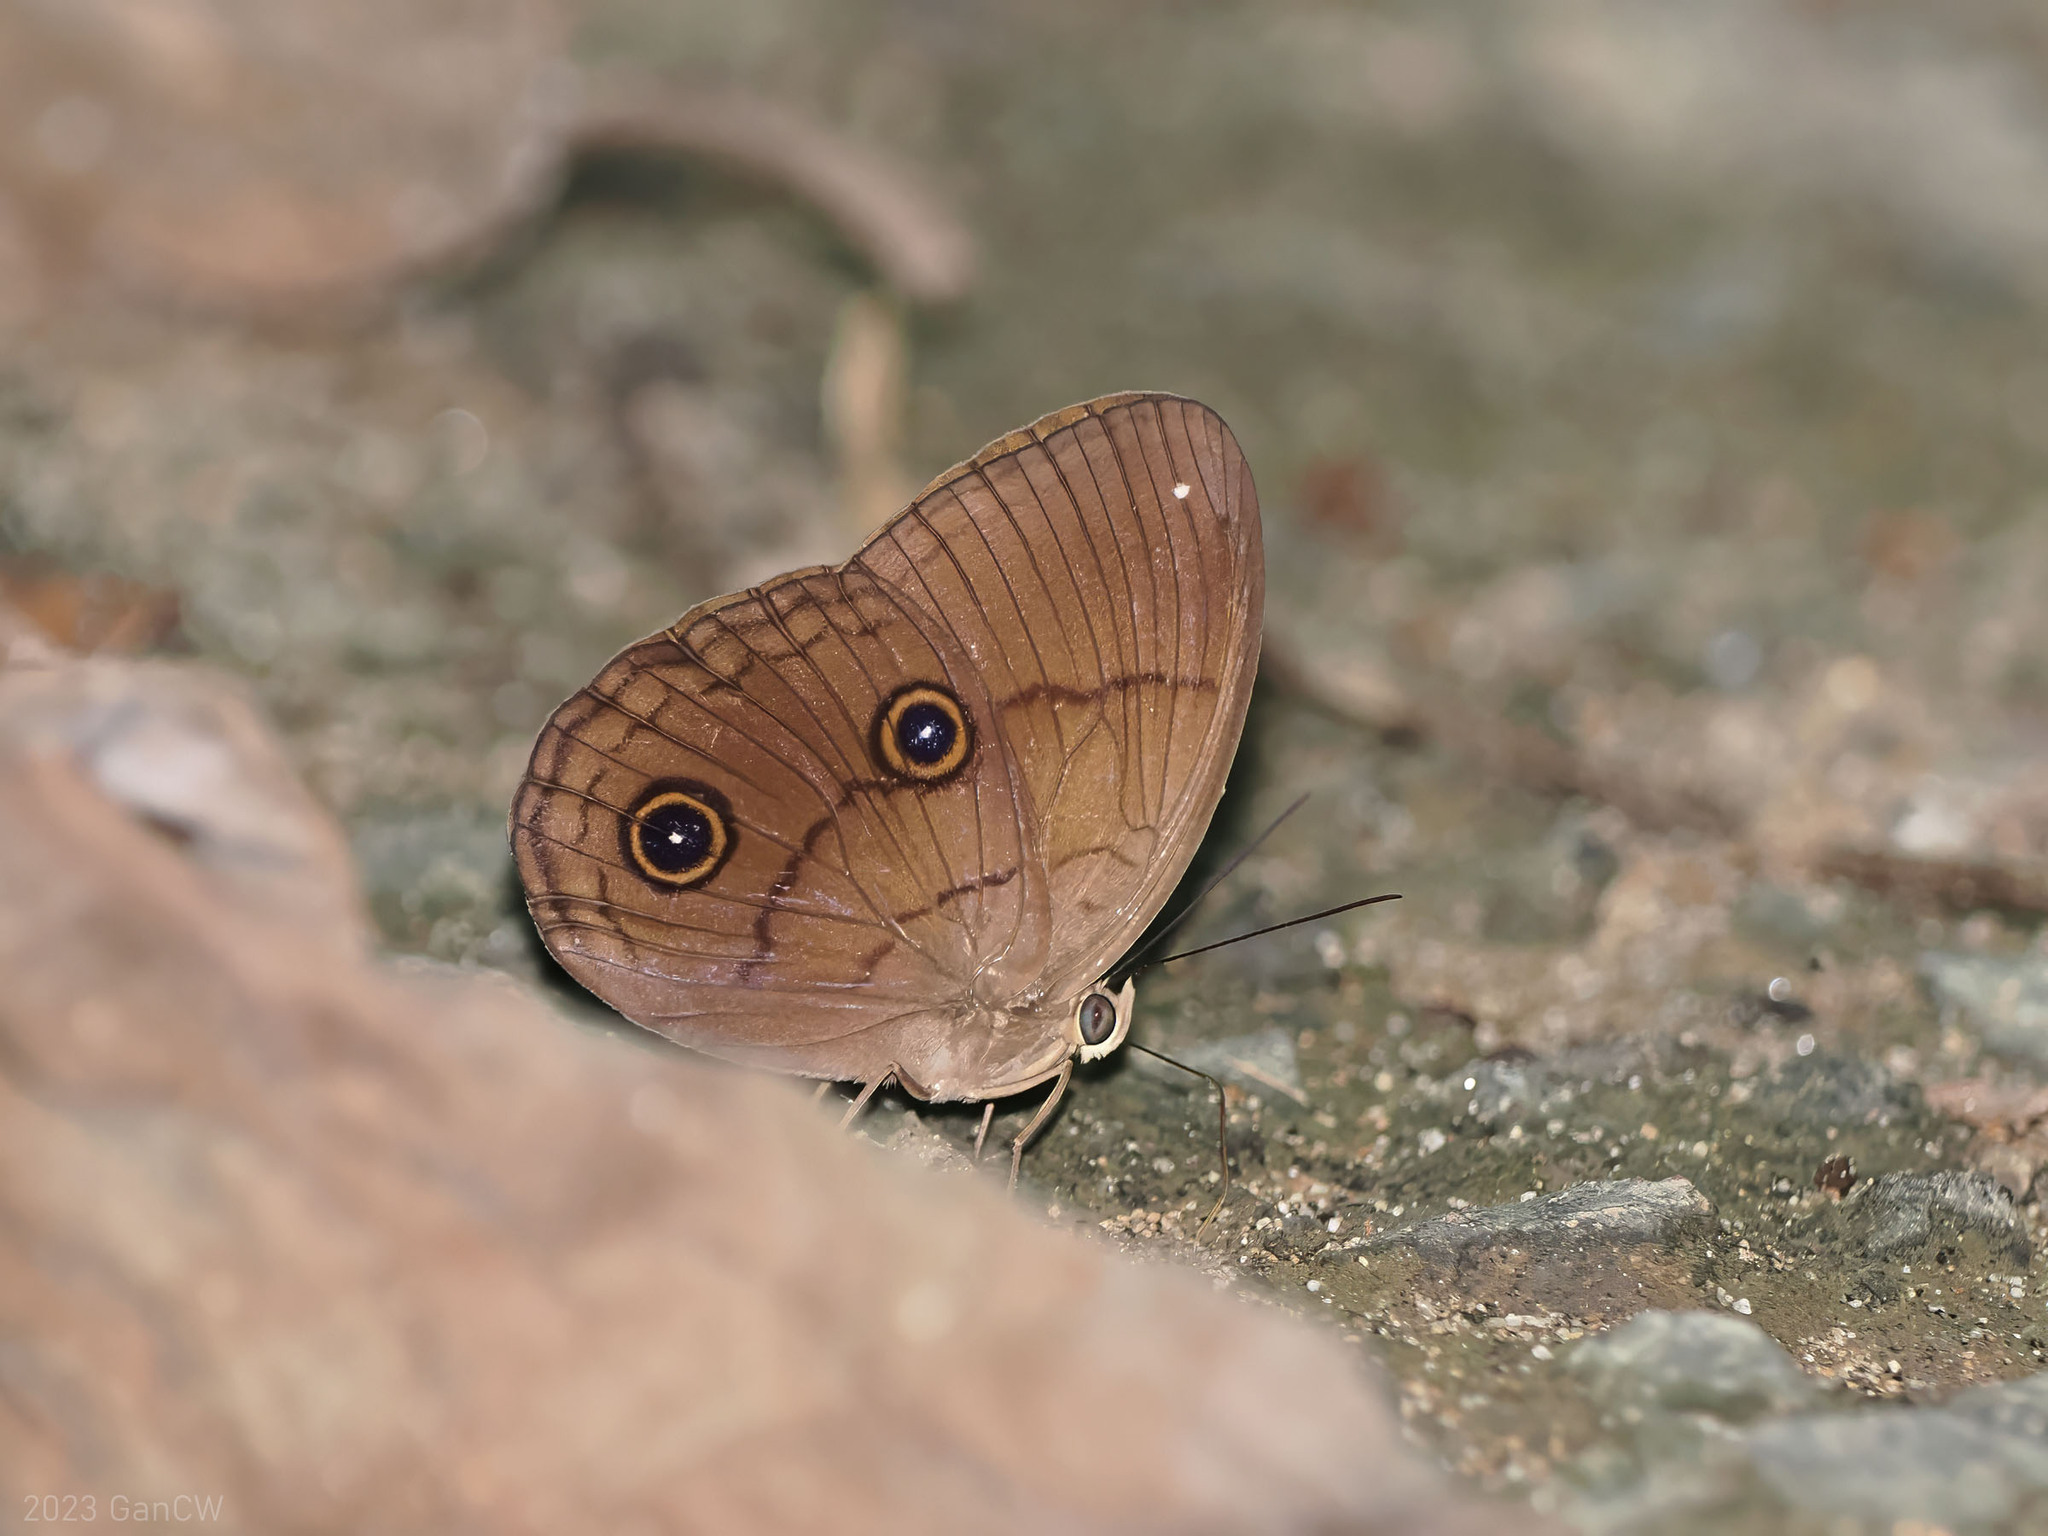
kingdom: Animalia
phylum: Arthropoda
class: Insecta
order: Lepidoptera
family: Nymphalidae
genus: Faunis
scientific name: Faunis phaon
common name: Faun butterfly
